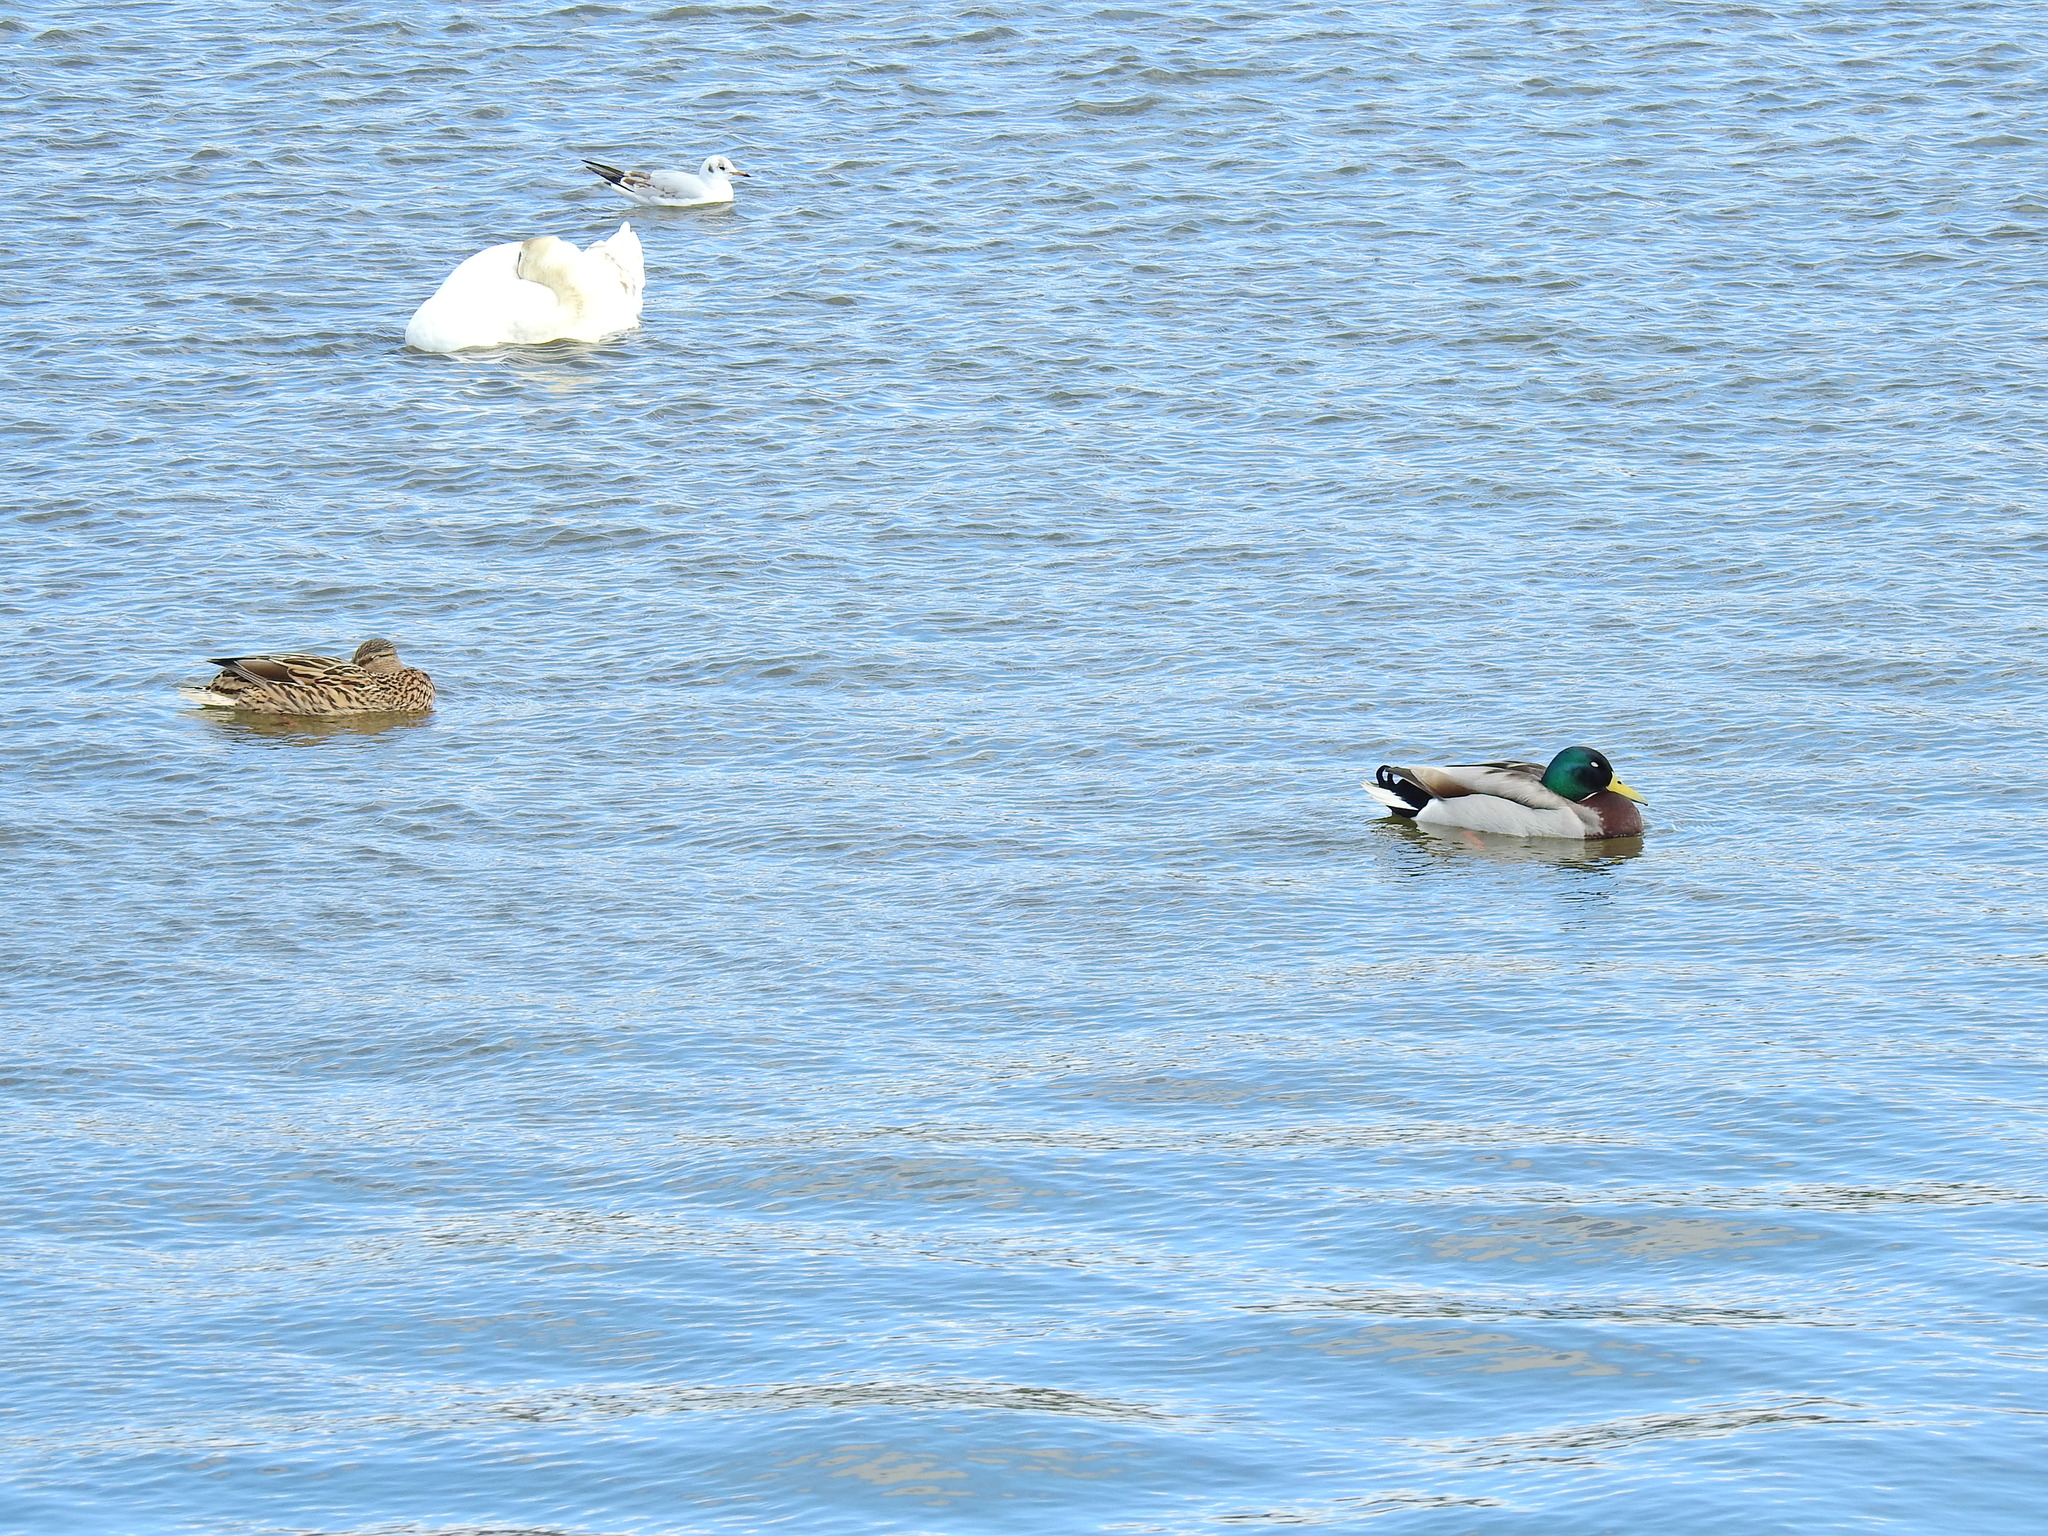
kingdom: Animalia
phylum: Chordata
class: Aves
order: Anseriformes
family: Anatidae
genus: Anas
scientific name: Anas platyrhynchos
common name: Mallard
